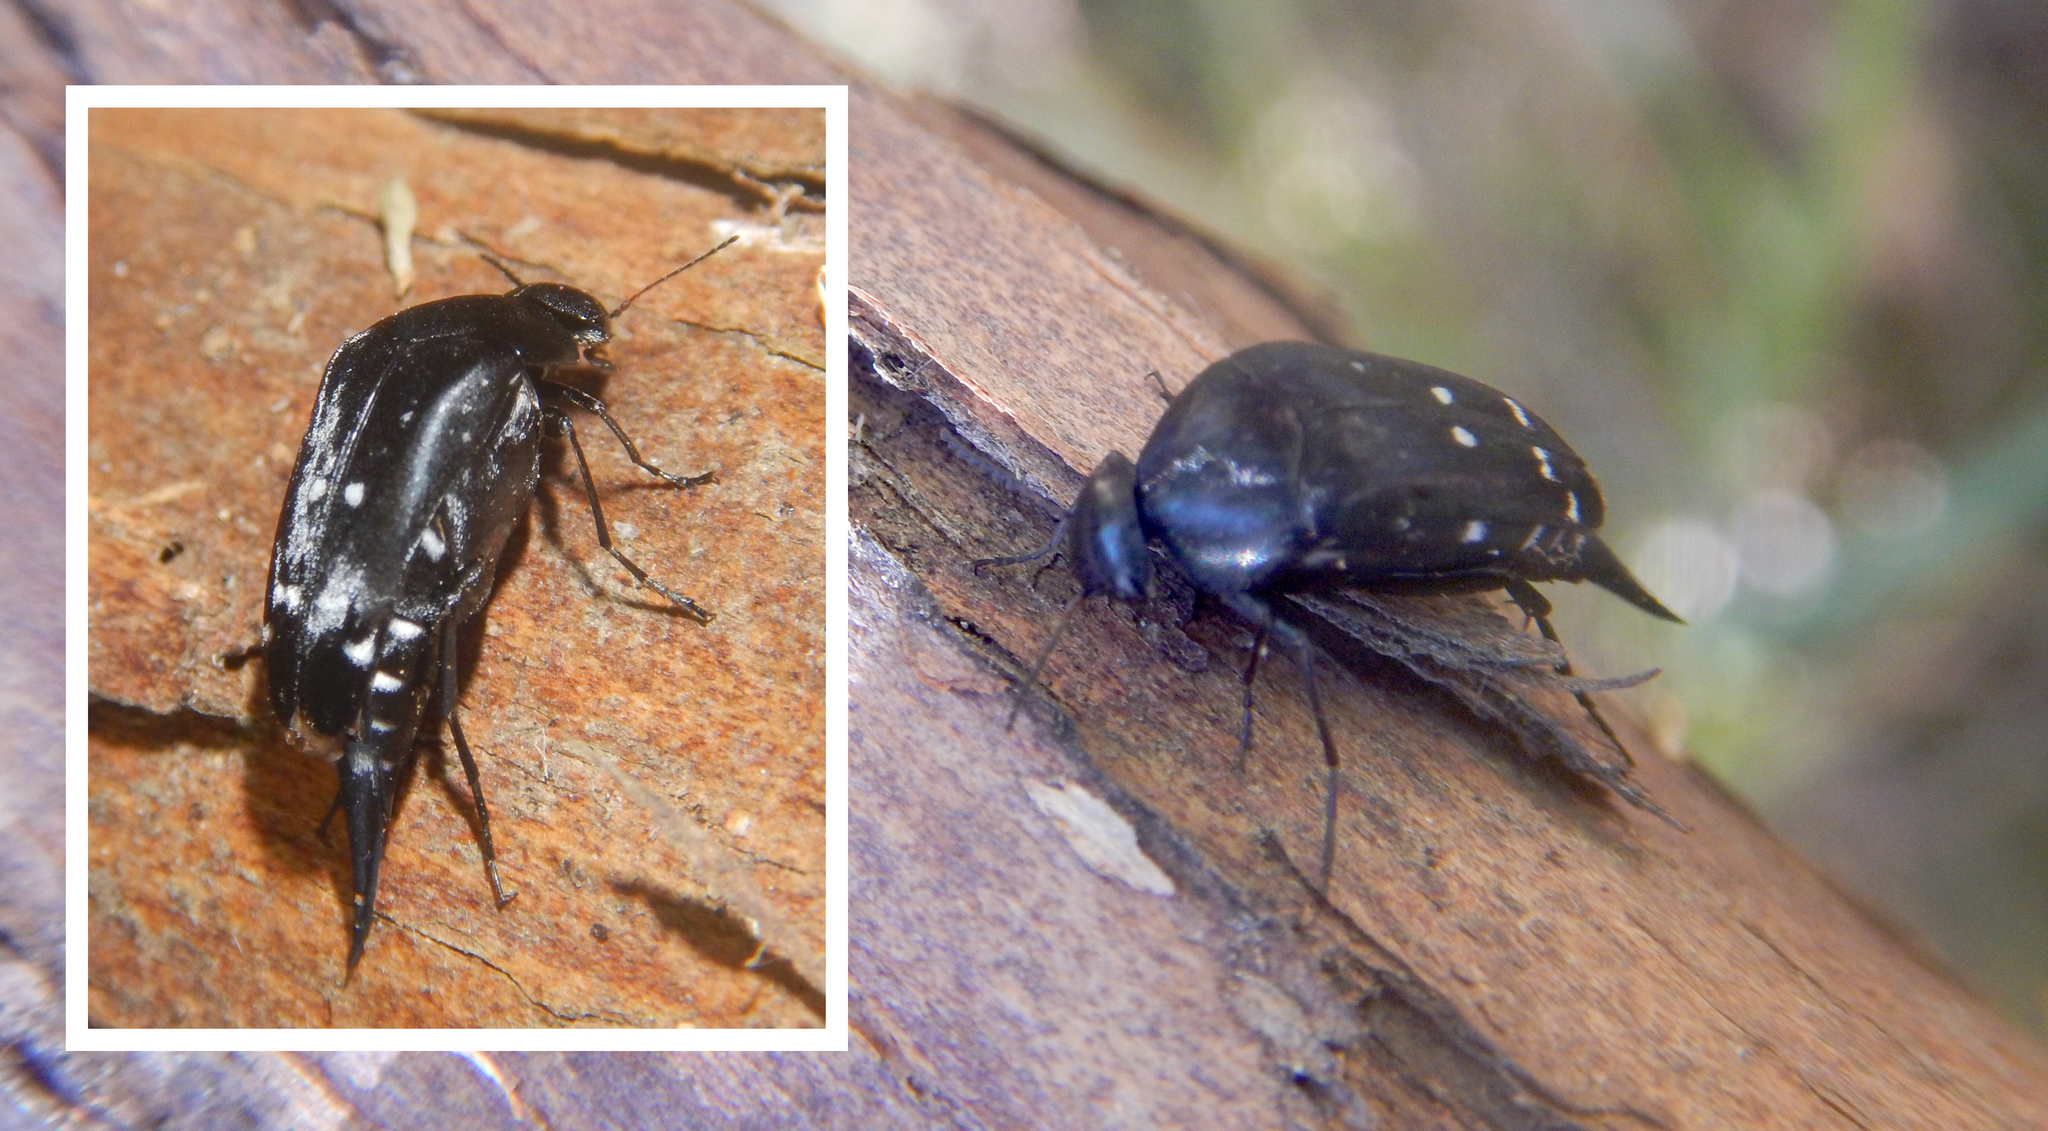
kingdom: Animalia
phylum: Arthropoda
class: Insecta
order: Coleoptera
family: Mordellidae
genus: Hoshihananomia
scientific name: Hoshihananomia
